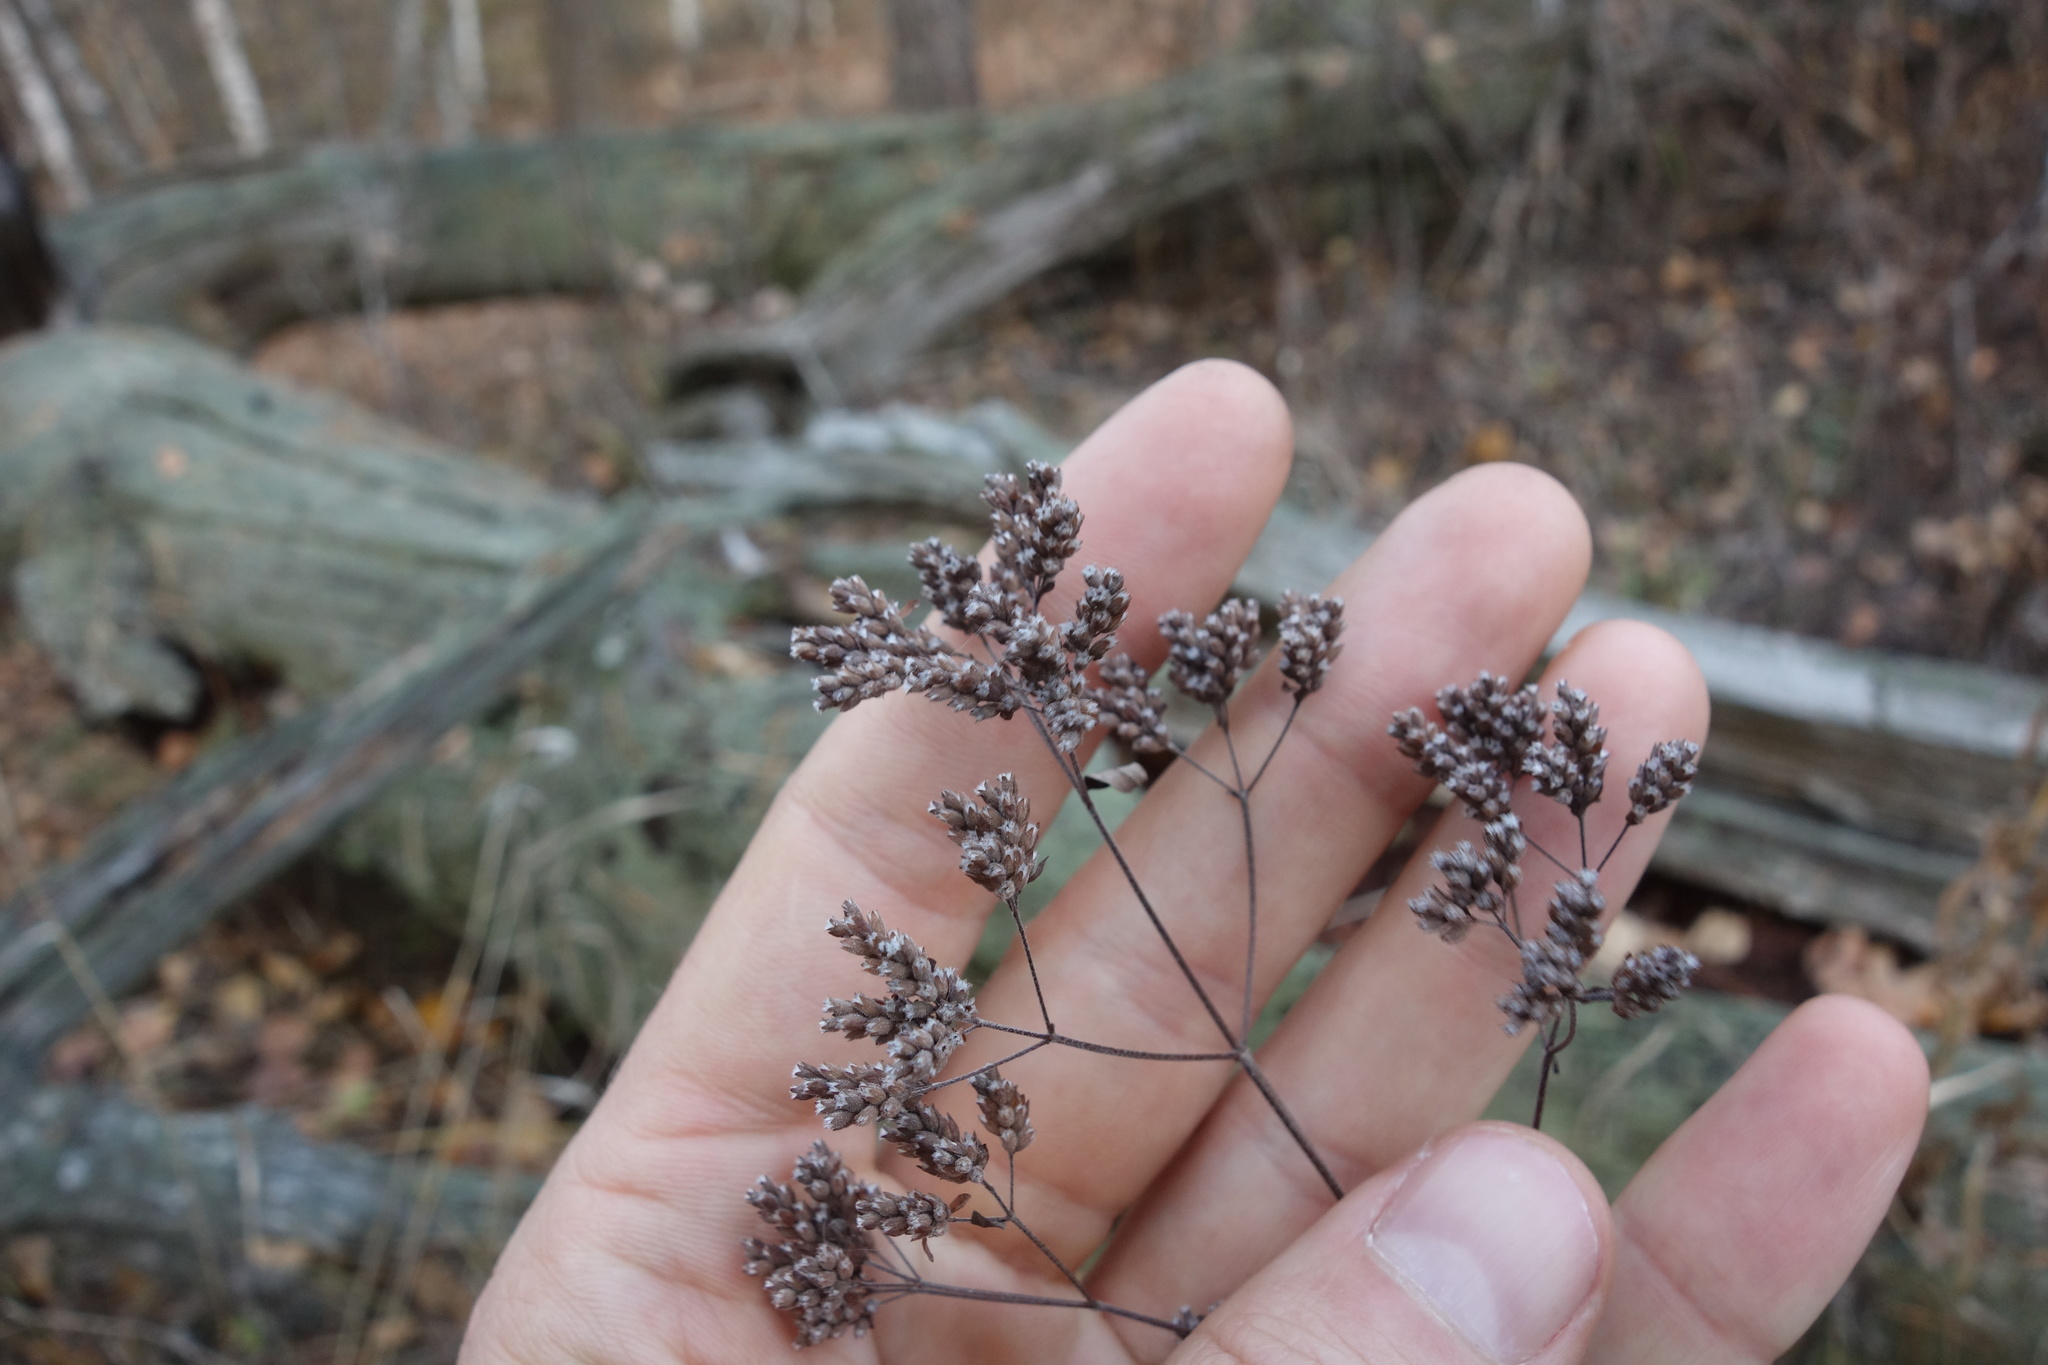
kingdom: Plantae
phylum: Tracheophyta
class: Magnoliopsida
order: Lamiales
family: Lamiaceae
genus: Origanum
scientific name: Origanum vulgare
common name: Wild marjoram
